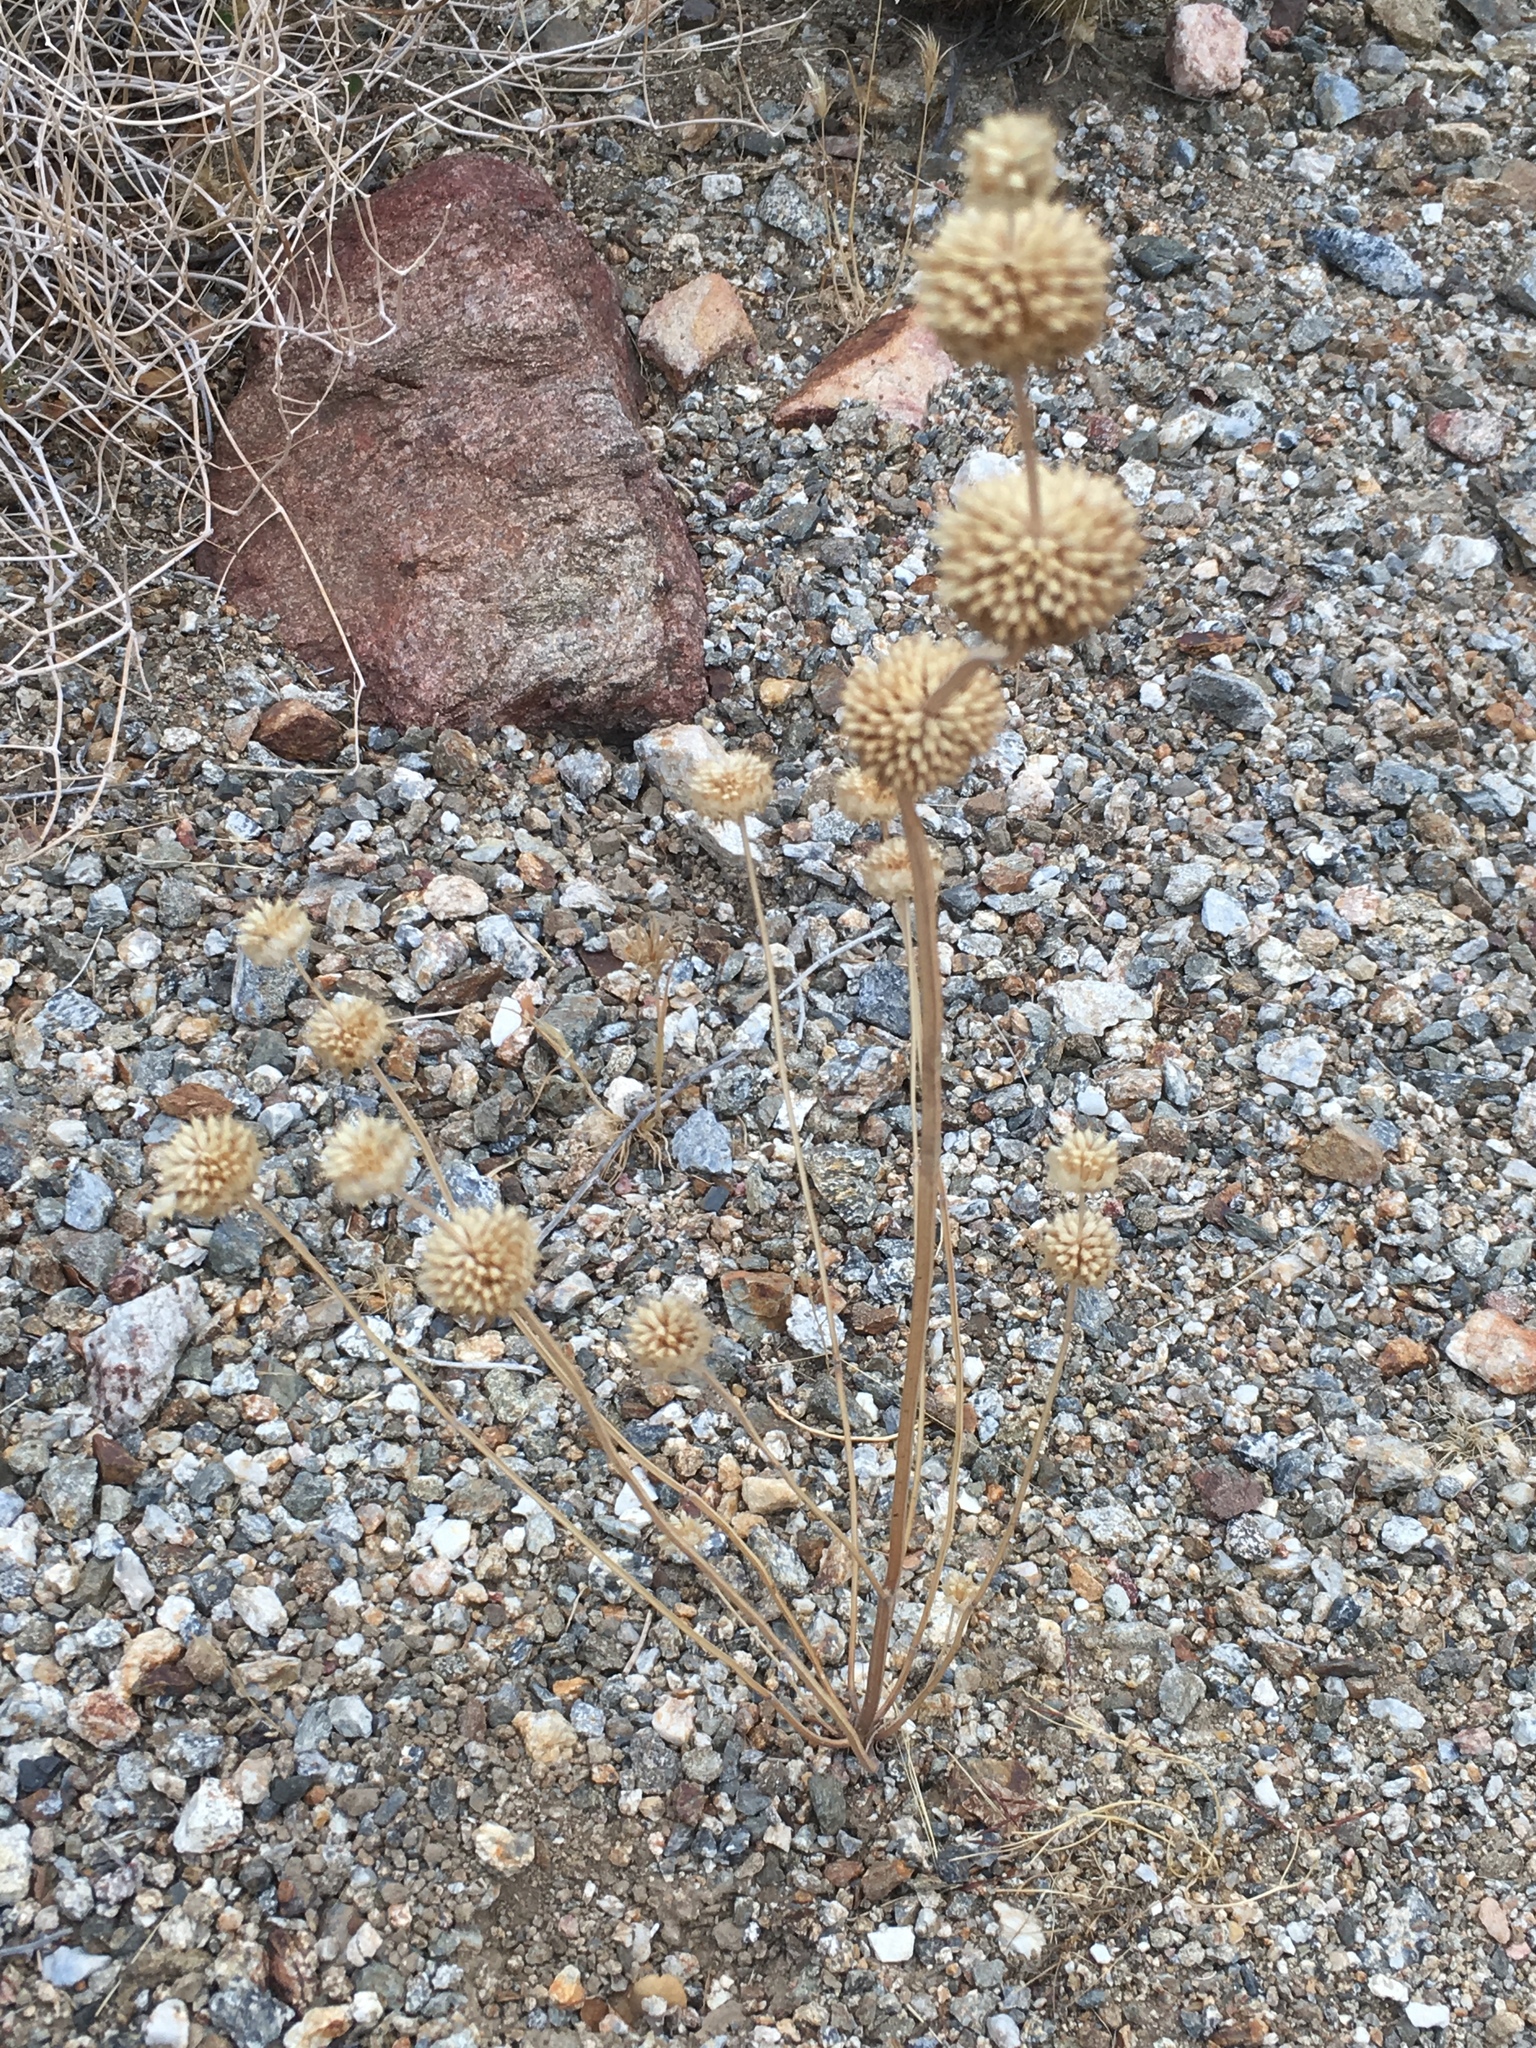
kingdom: Plantae
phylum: Tracheophyta
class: Magnoliopsida
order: Lamiales
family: Lamiaceae
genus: Salvia
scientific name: Salvia columbariae
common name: Chia
